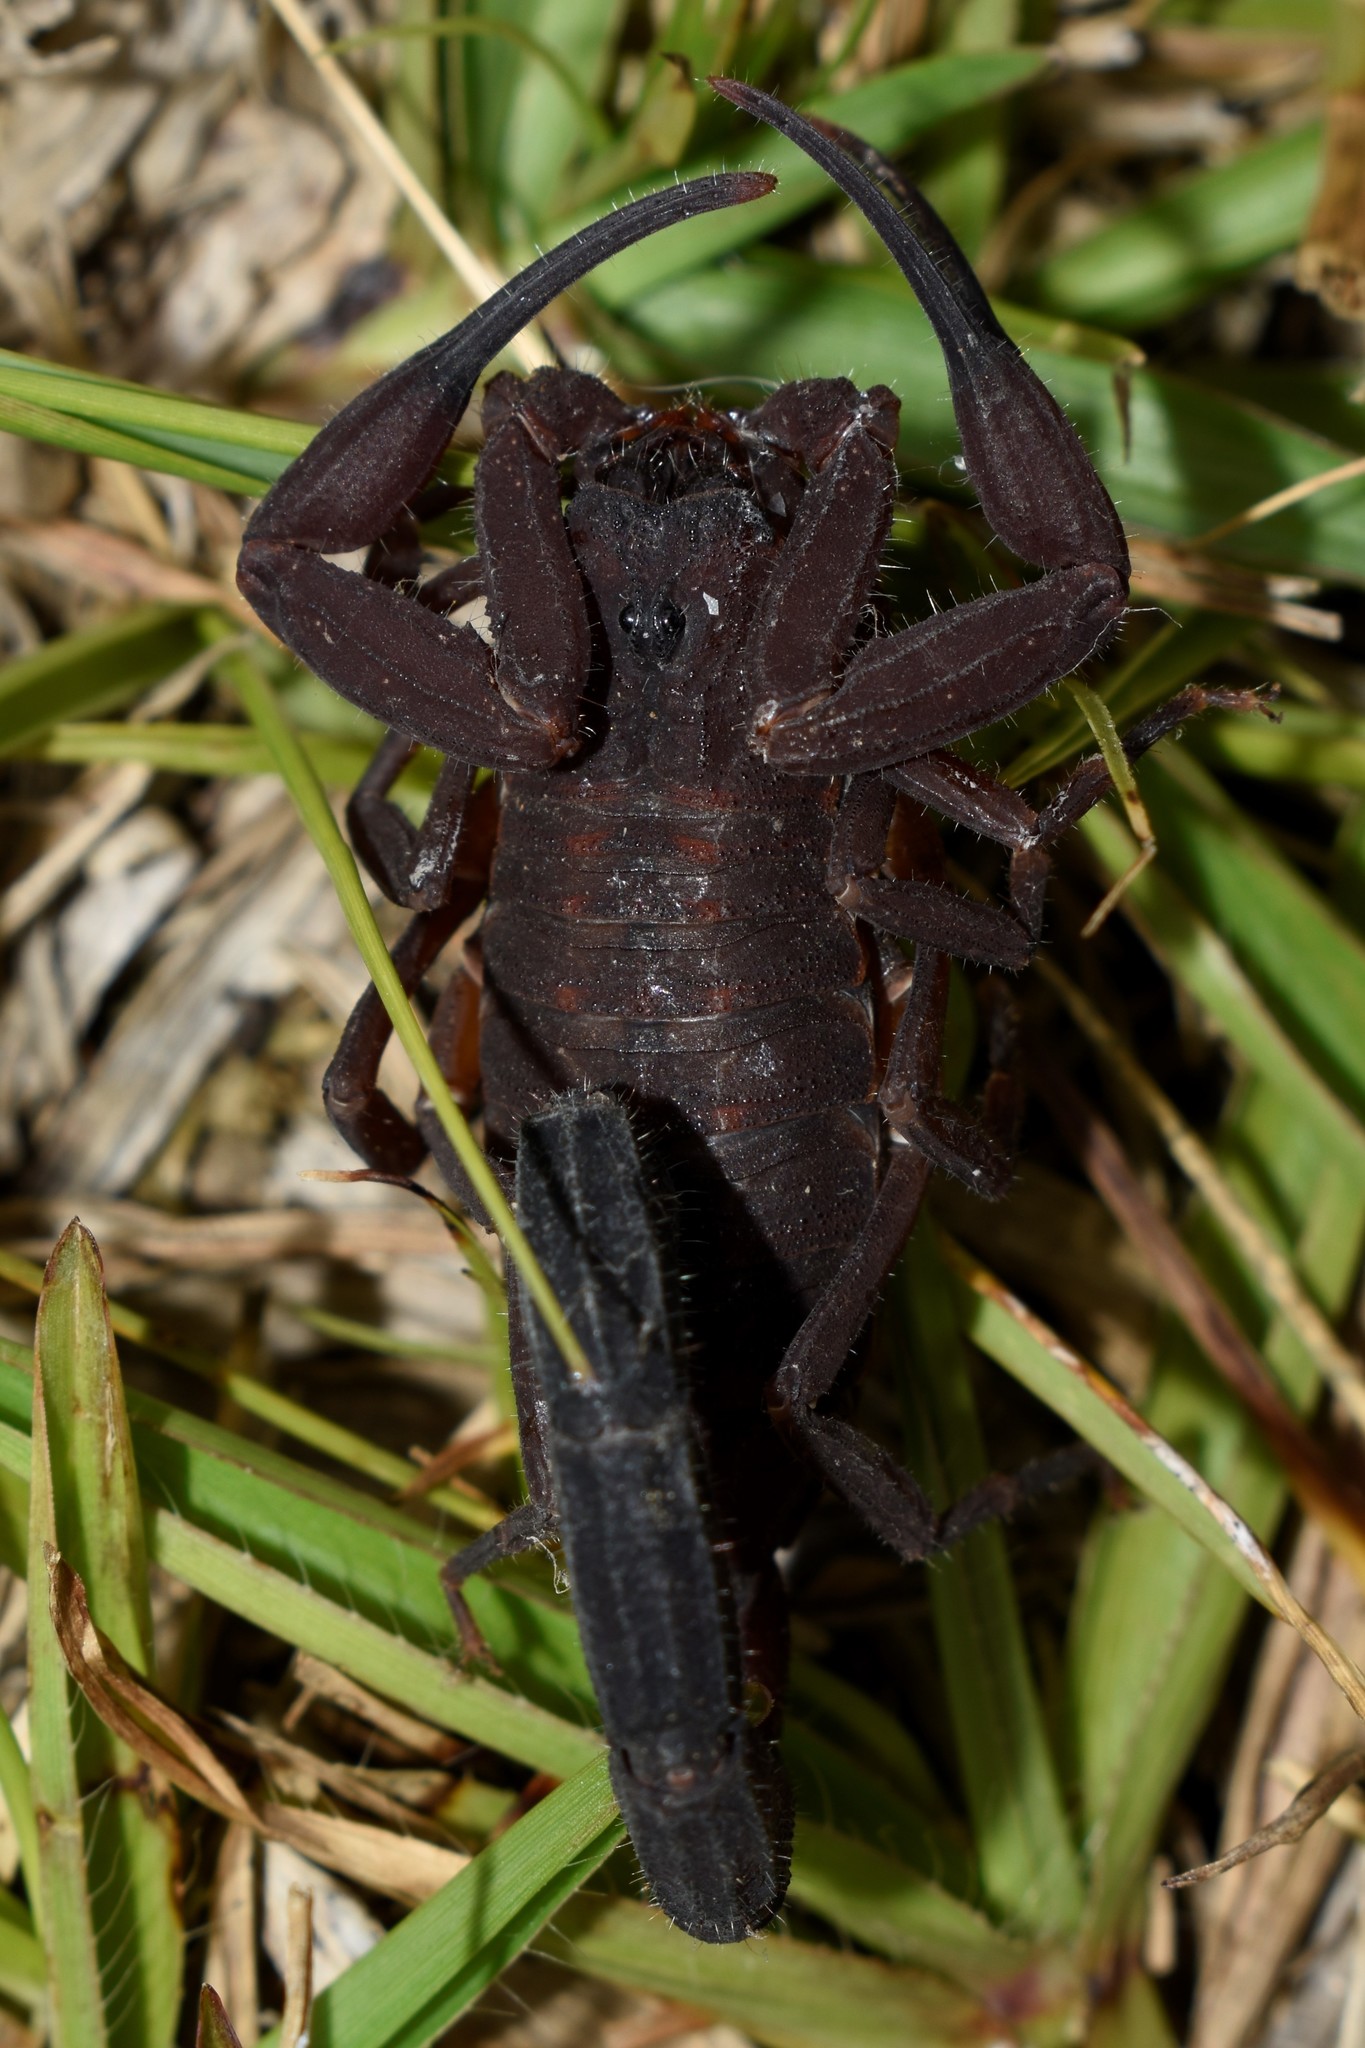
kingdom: Animalia
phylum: Arthropoda
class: Arachnida
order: Scorpiones
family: Buthidae
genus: Tityus
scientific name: Tityus antioquensis
